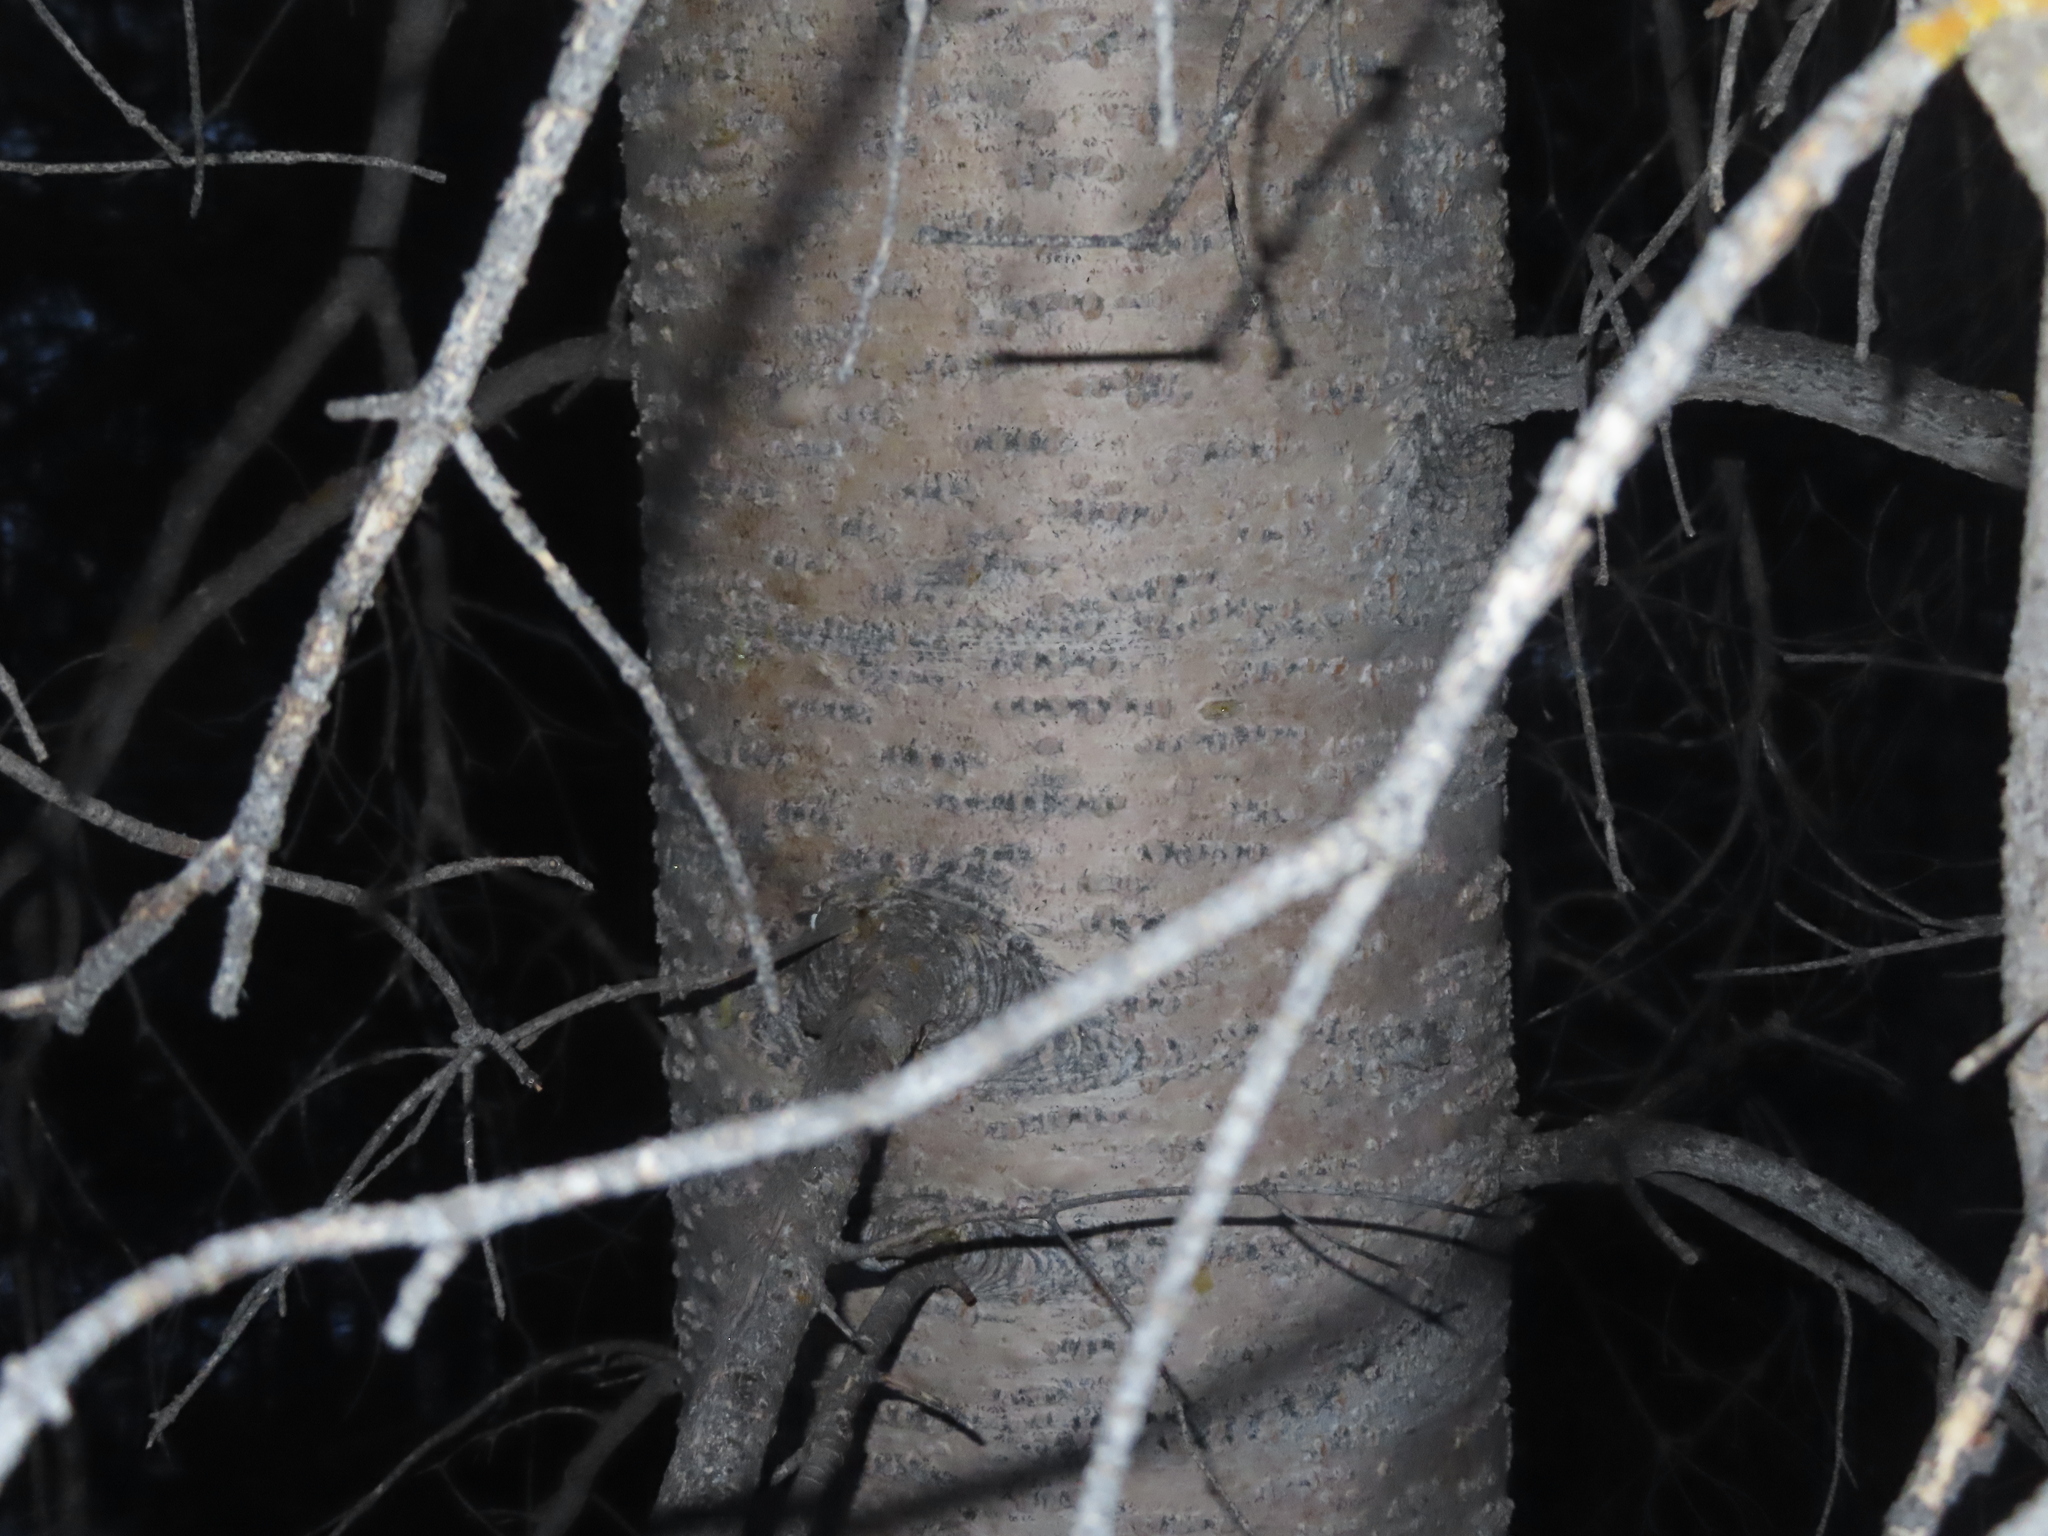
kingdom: Plantae
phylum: Tracheophyta
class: Pinopsida
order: Pinales
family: Pinaceae
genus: Abies
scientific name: Abies lasiocarpa
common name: Subalpine fir
